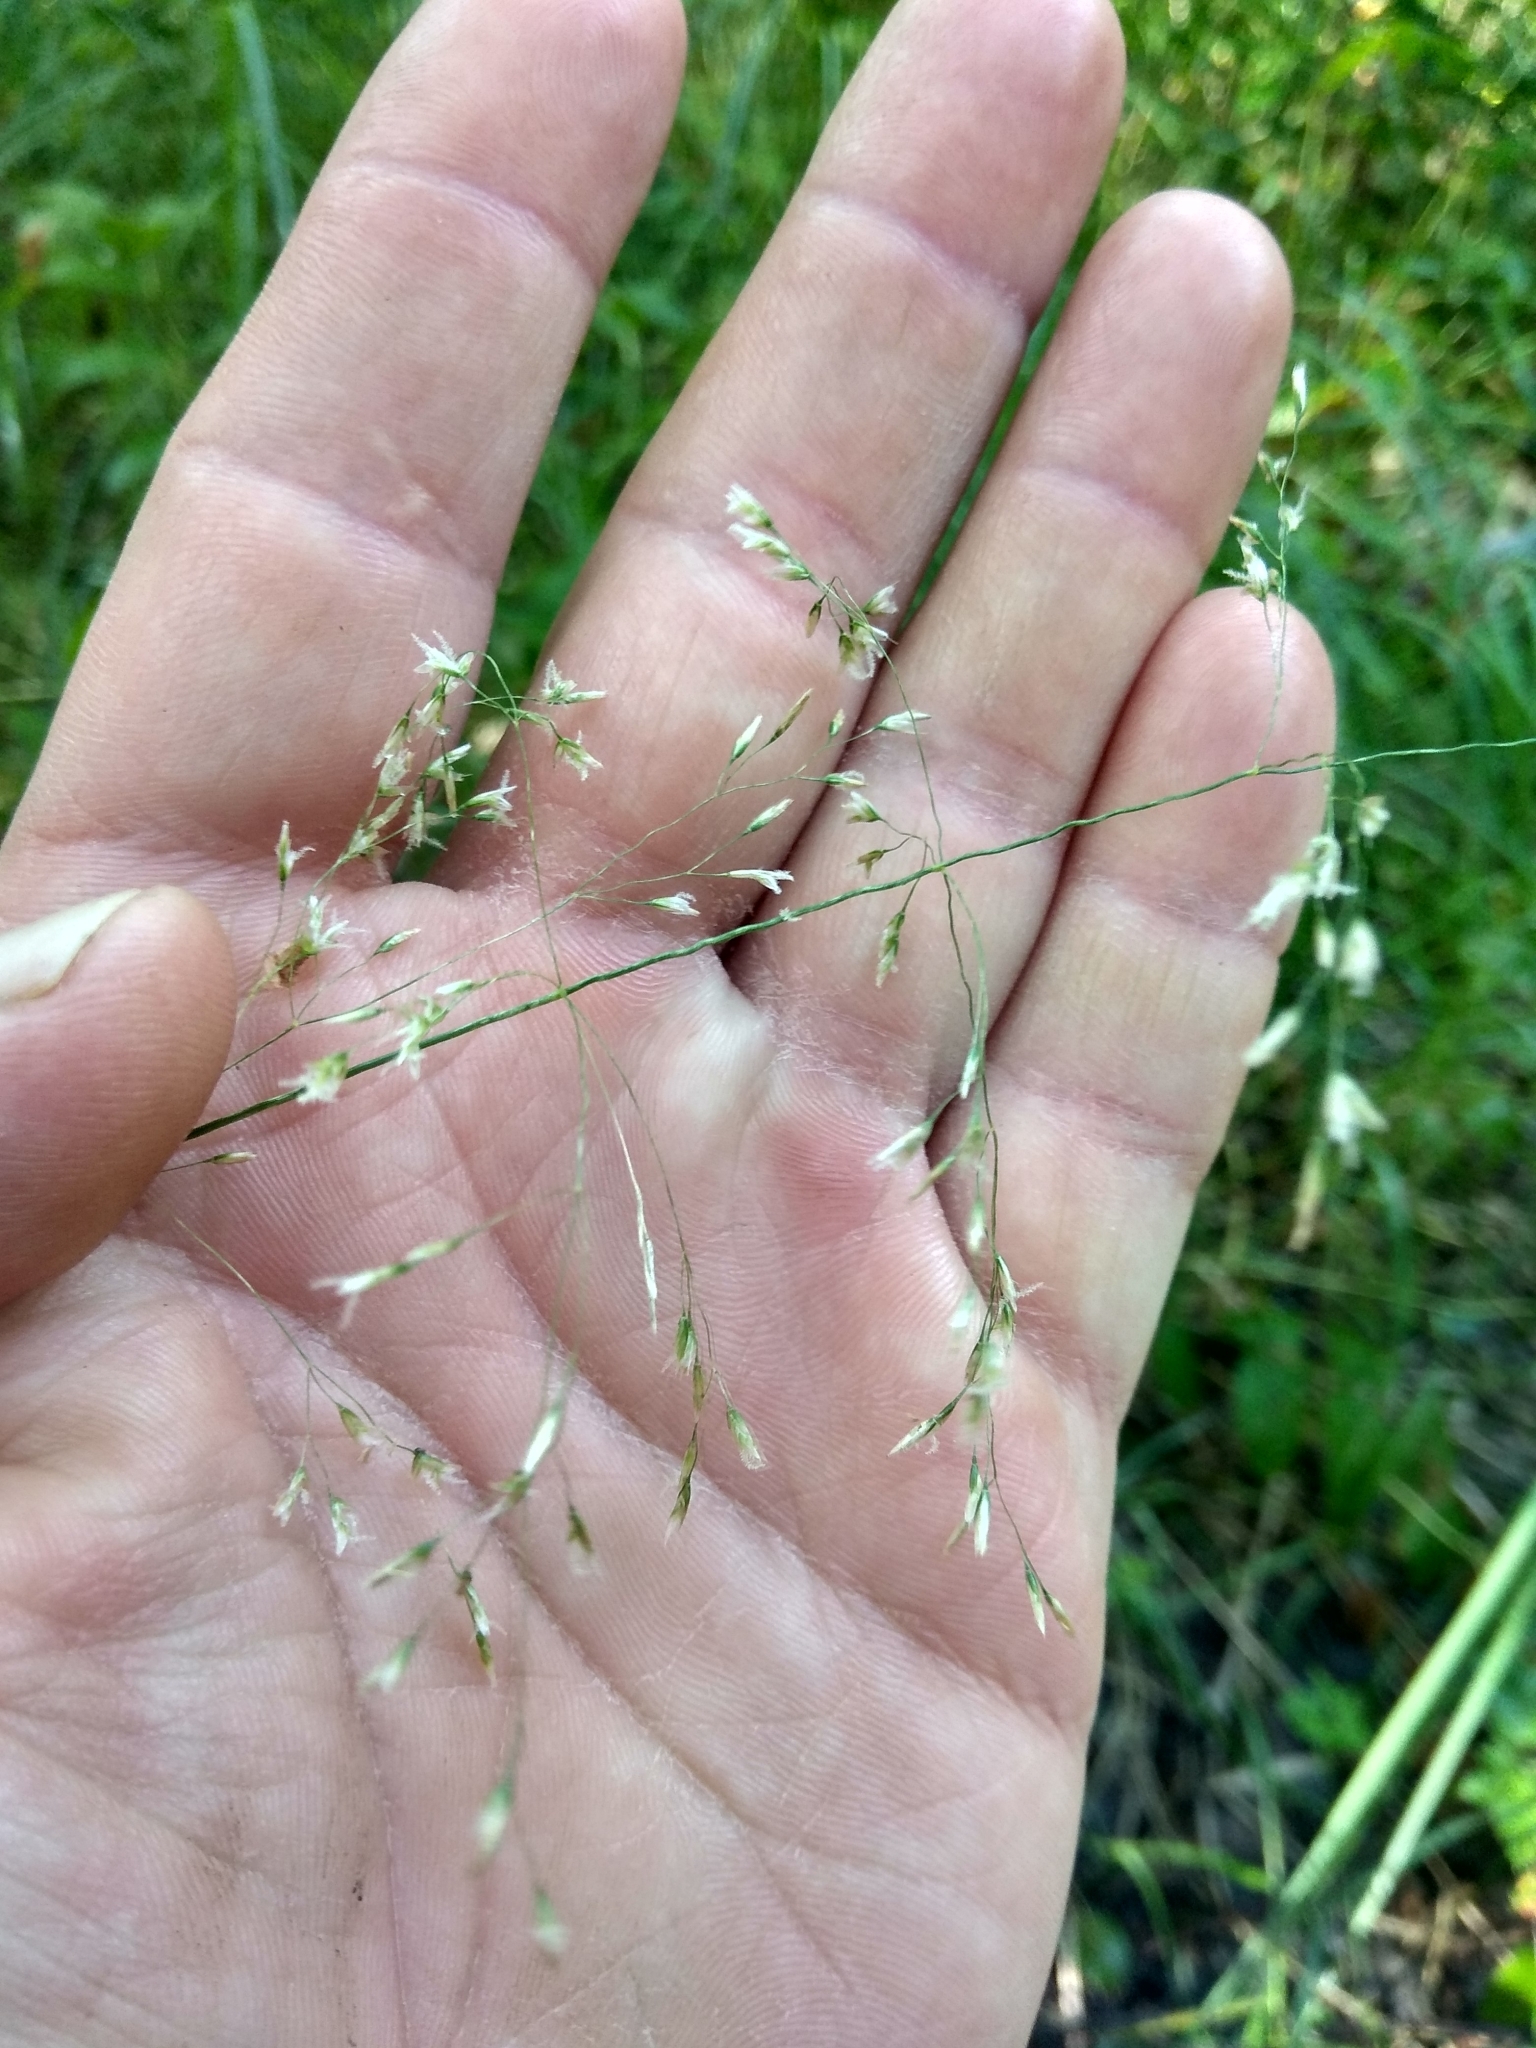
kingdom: Plantae
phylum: Tracheophyta
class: Liliopsida
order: Poales
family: Poaceae
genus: Deschampsia
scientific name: Deschampsia cespitosa
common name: Tufted hair-grass
